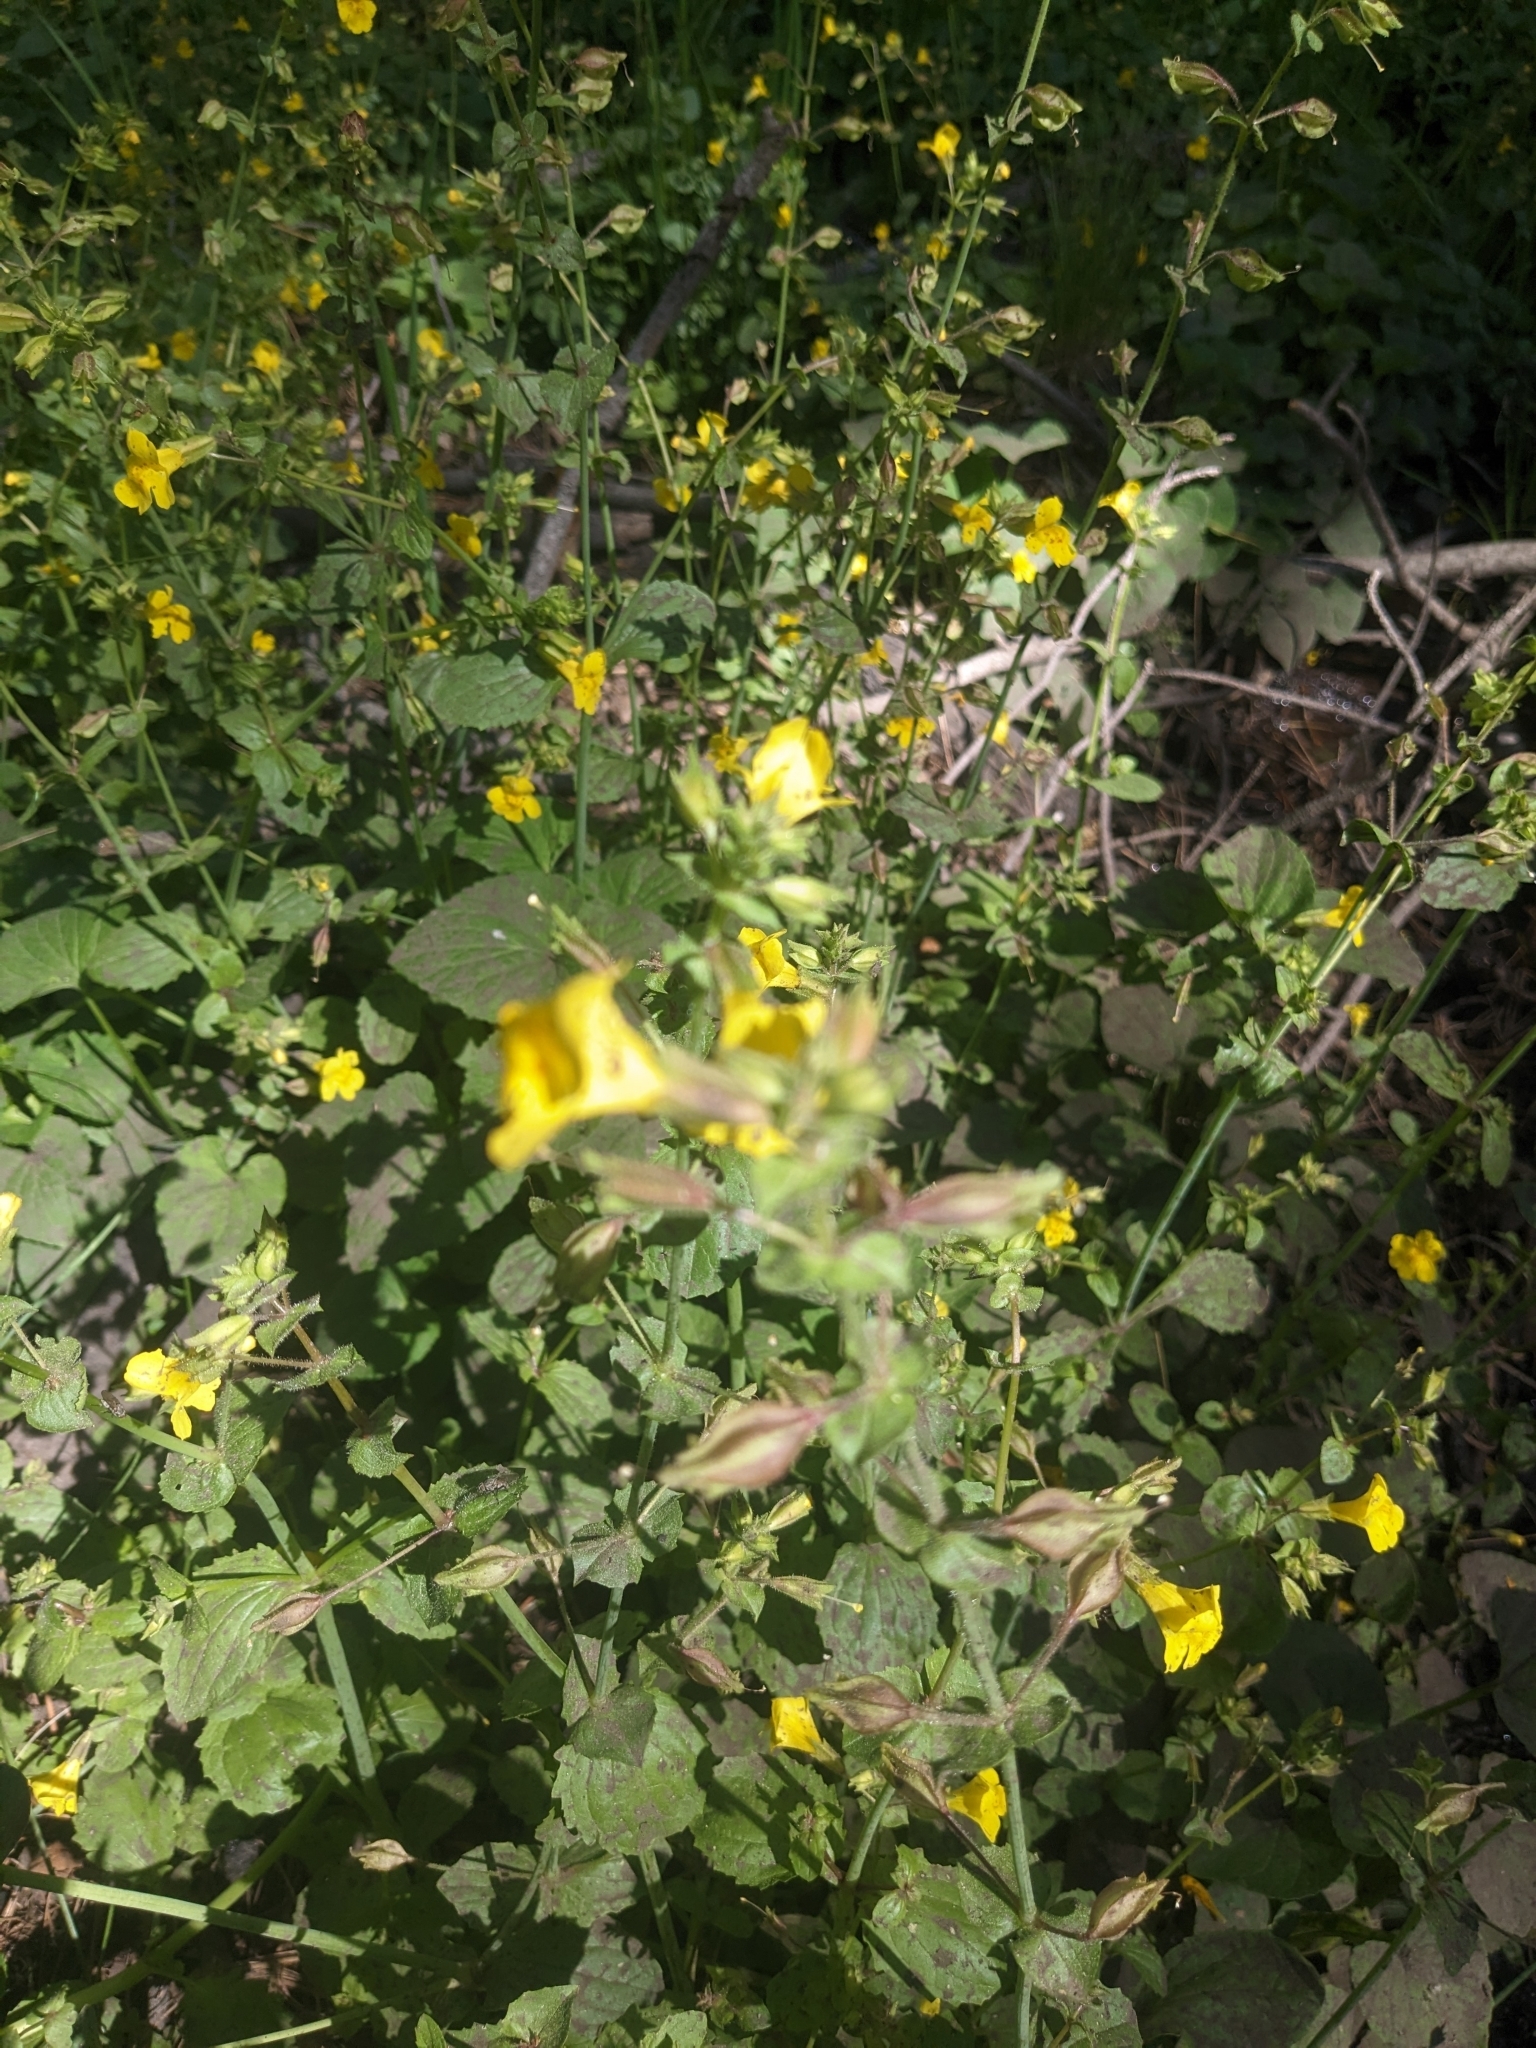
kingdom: Plantae
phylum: Tracheophyta
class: Magnoliopsida
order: Lamiales
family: Phrymaceae
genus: Erythranthe
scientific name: Erythranthe guttata
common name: Monkeyflower
